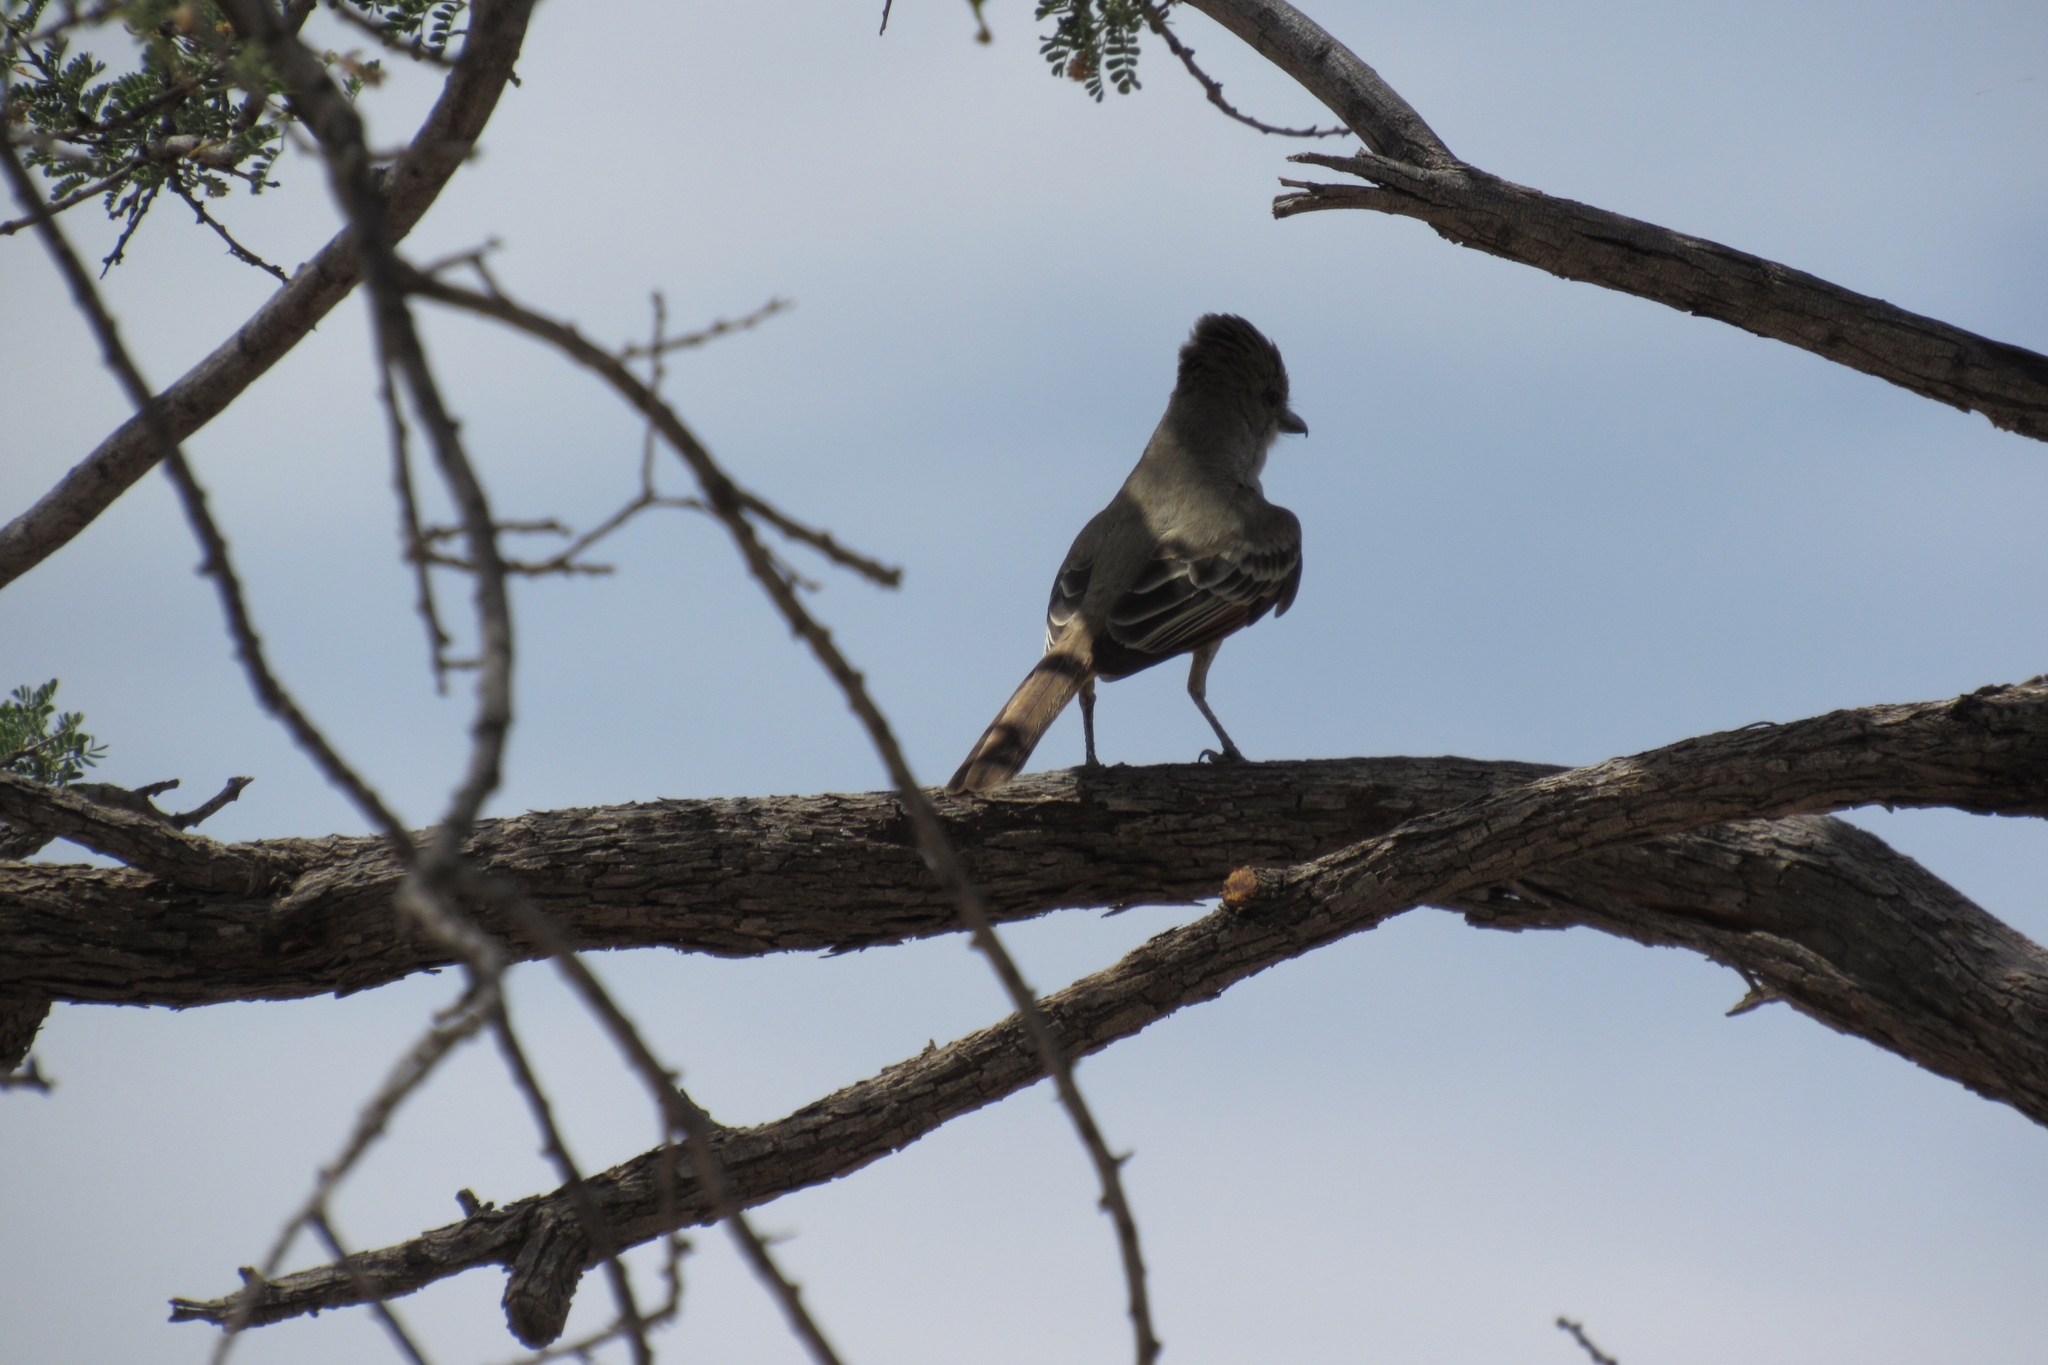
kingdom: Animalia
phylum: Chordata
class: Aves
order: Passeriformes
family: Tyrannidae
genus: Myiarchus
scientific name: Myiarchus tyrannulus
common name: Brown-crested flycatcher
